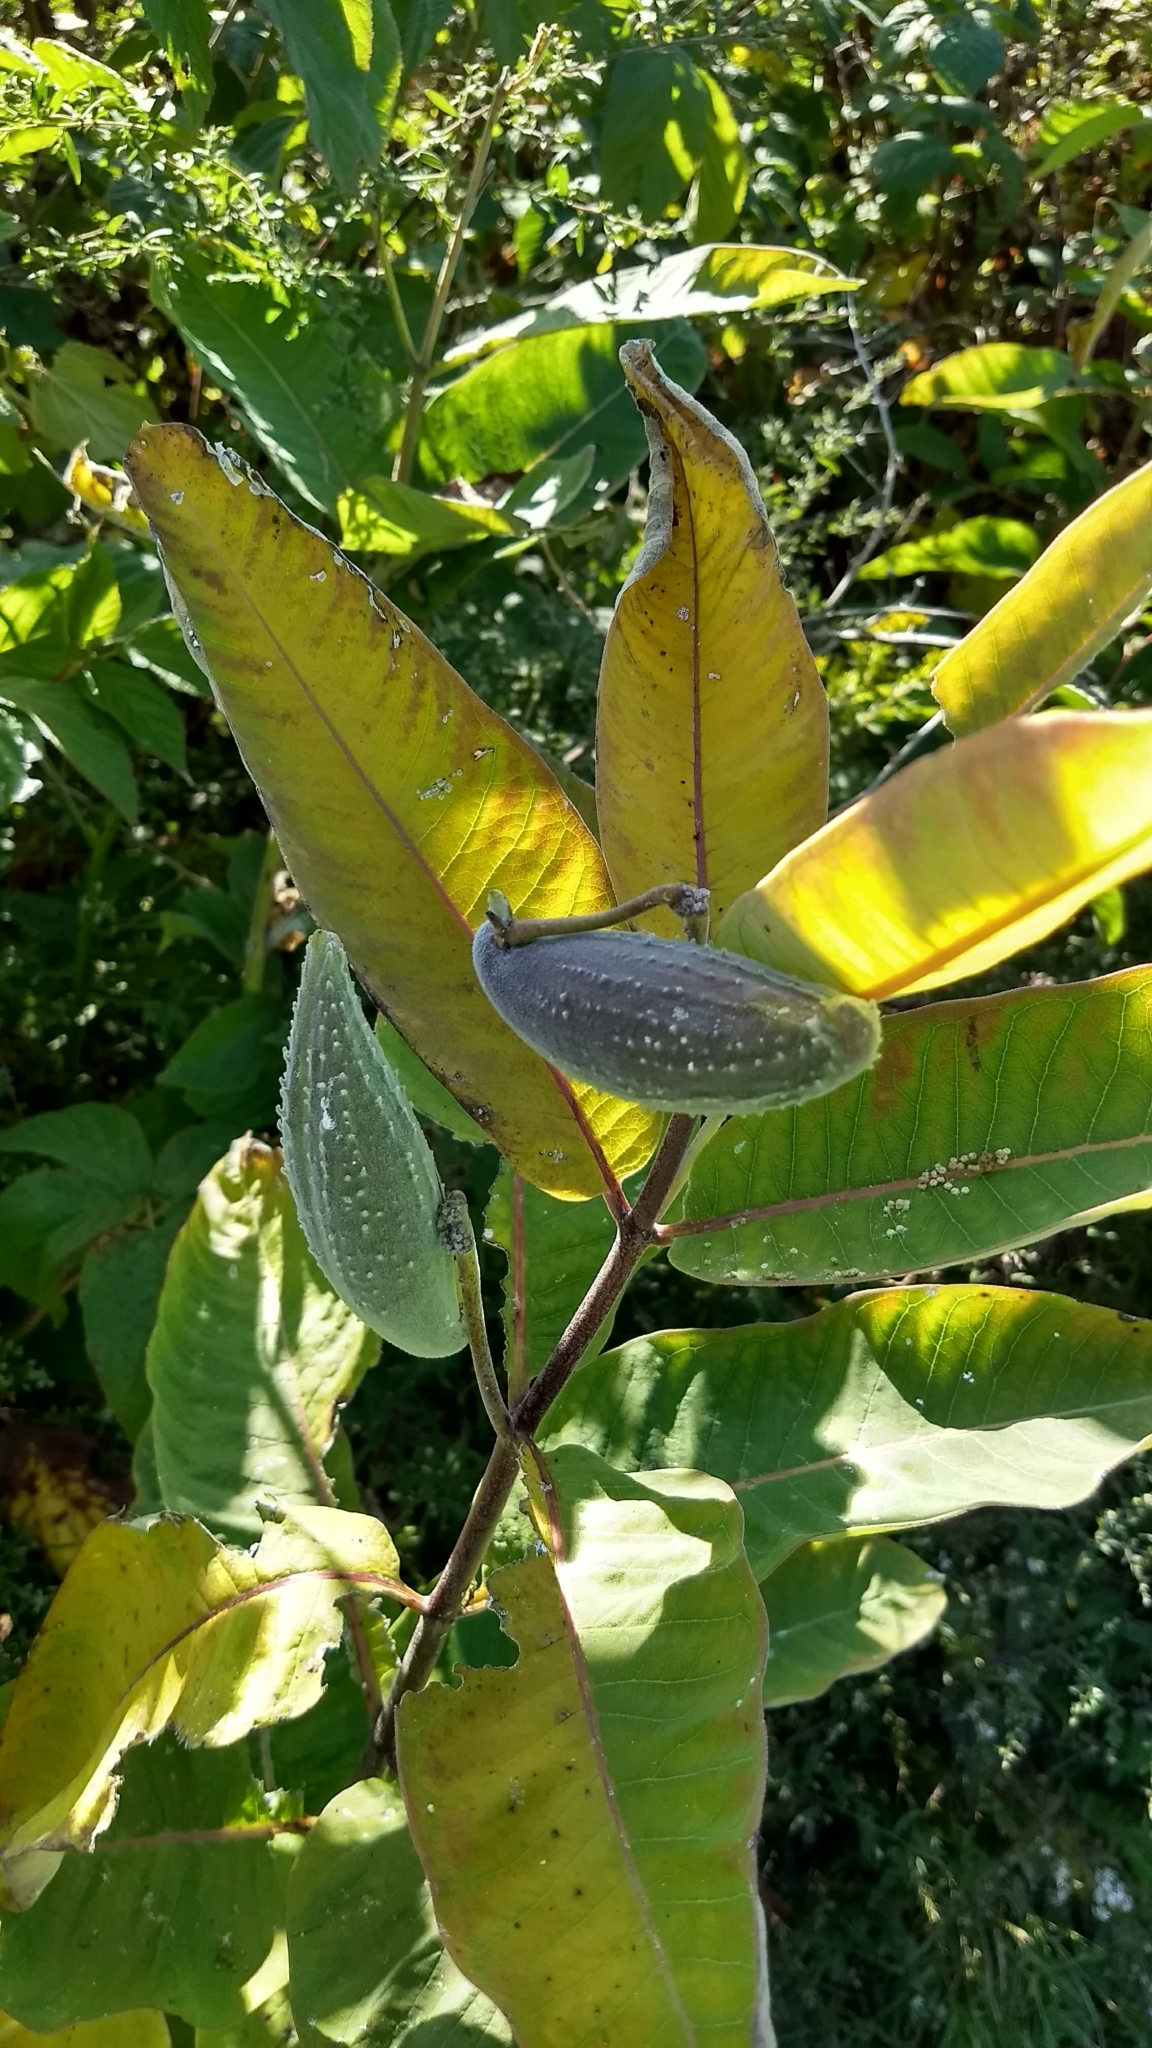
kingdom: Plantae
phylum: Tracheophyta
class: Magnoliopsida
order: Gentianales
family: Apocynaceae
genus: Asclepias
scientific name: Asclepias syriaca
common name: Common milkweed
